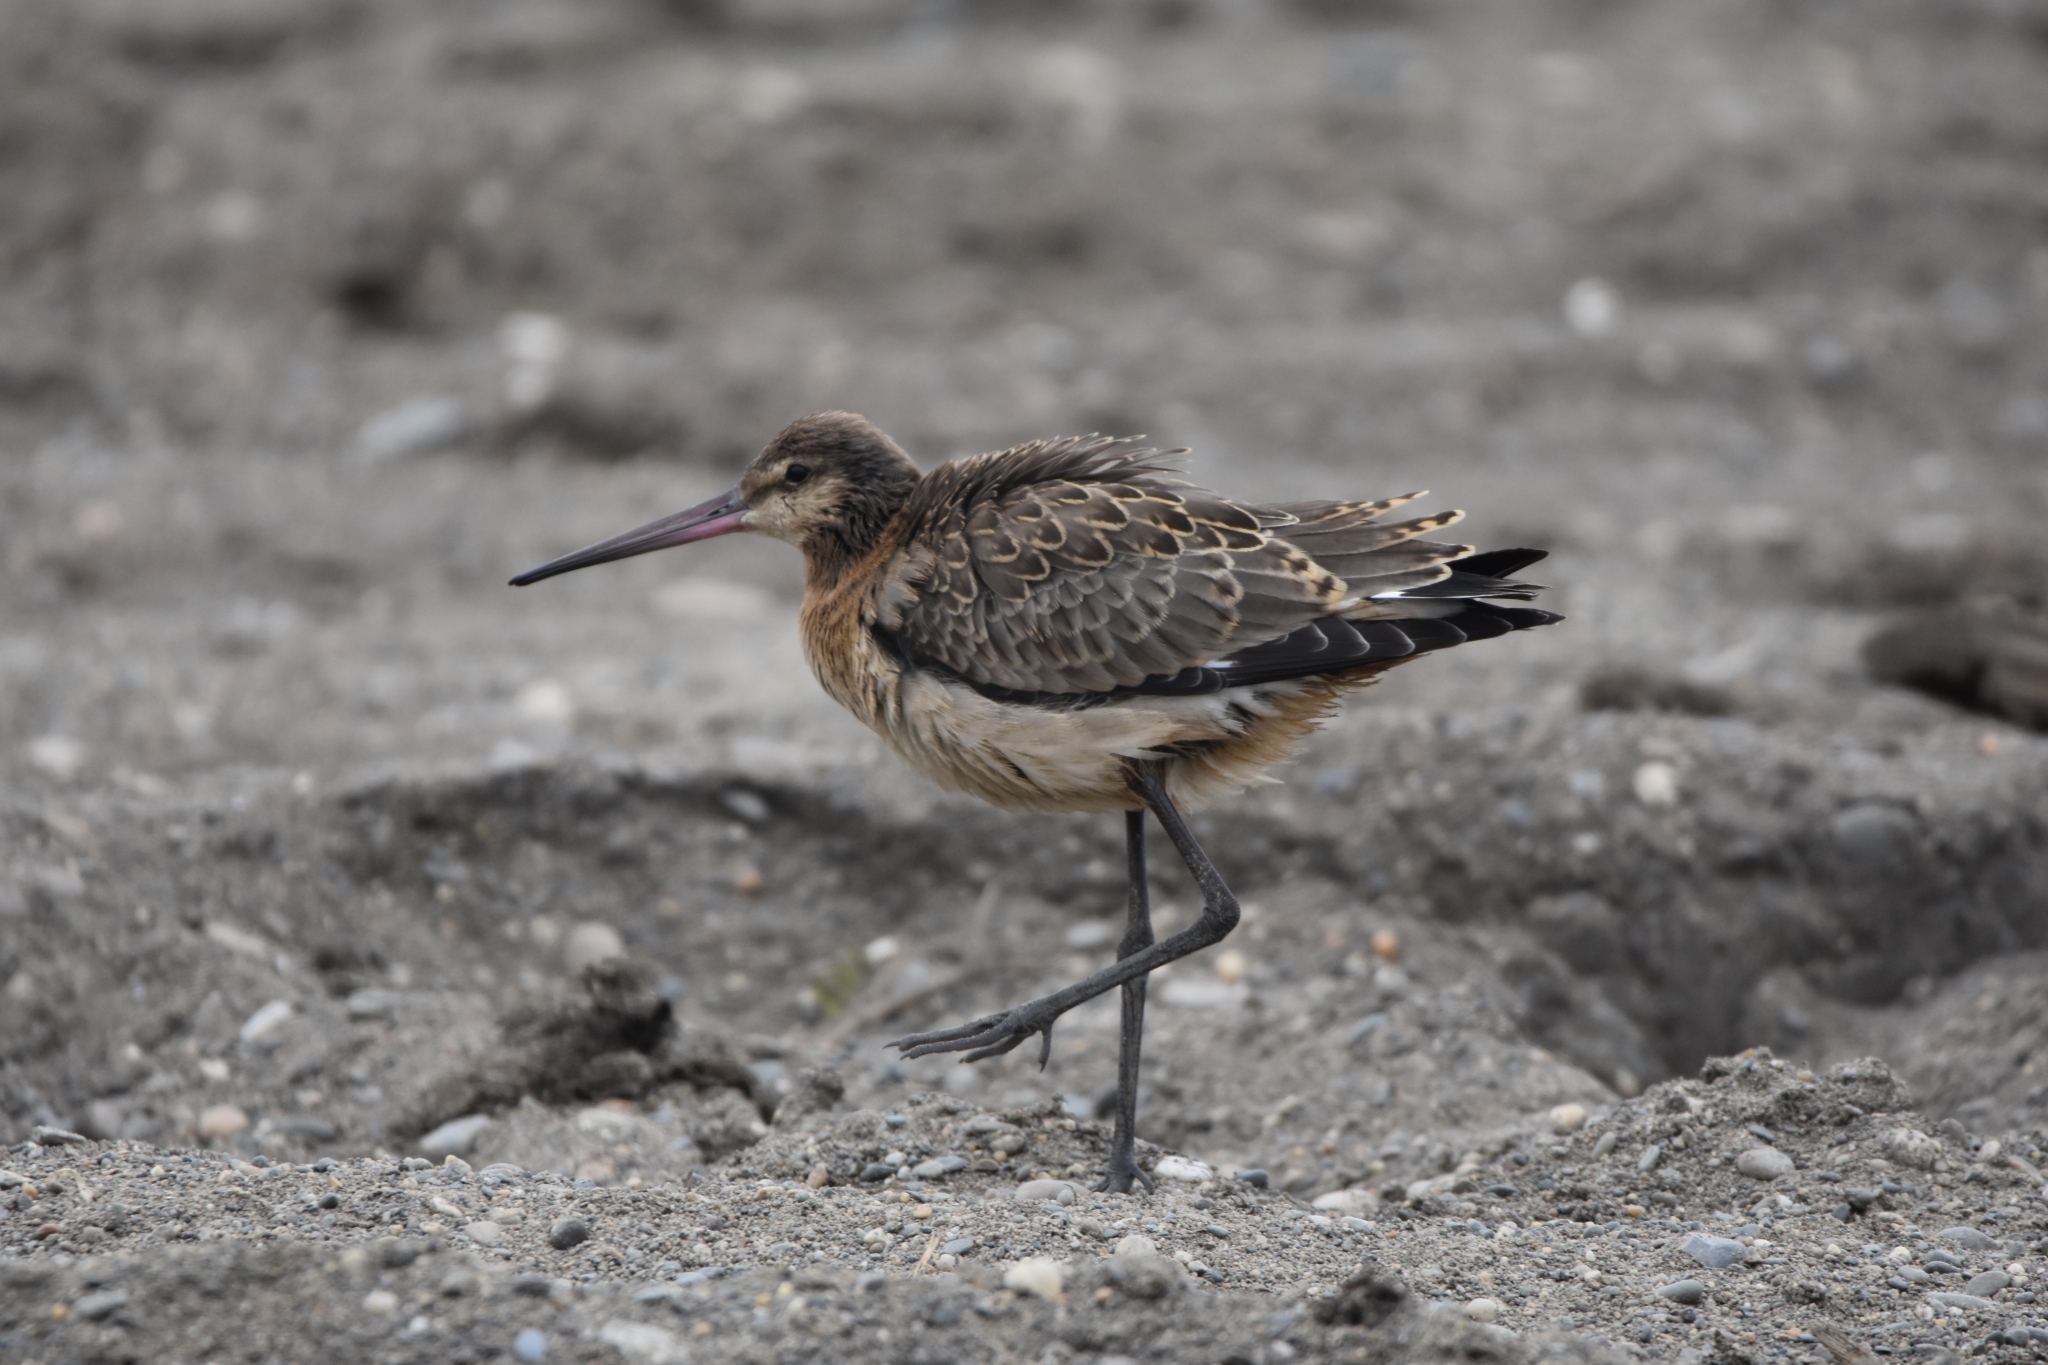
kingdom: Animalia
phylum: Chordata
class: Aves
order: Charadriiformes
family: Scolopacidae
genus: Limosa
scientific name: Limosa limosa
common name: Black-tailed godwit
